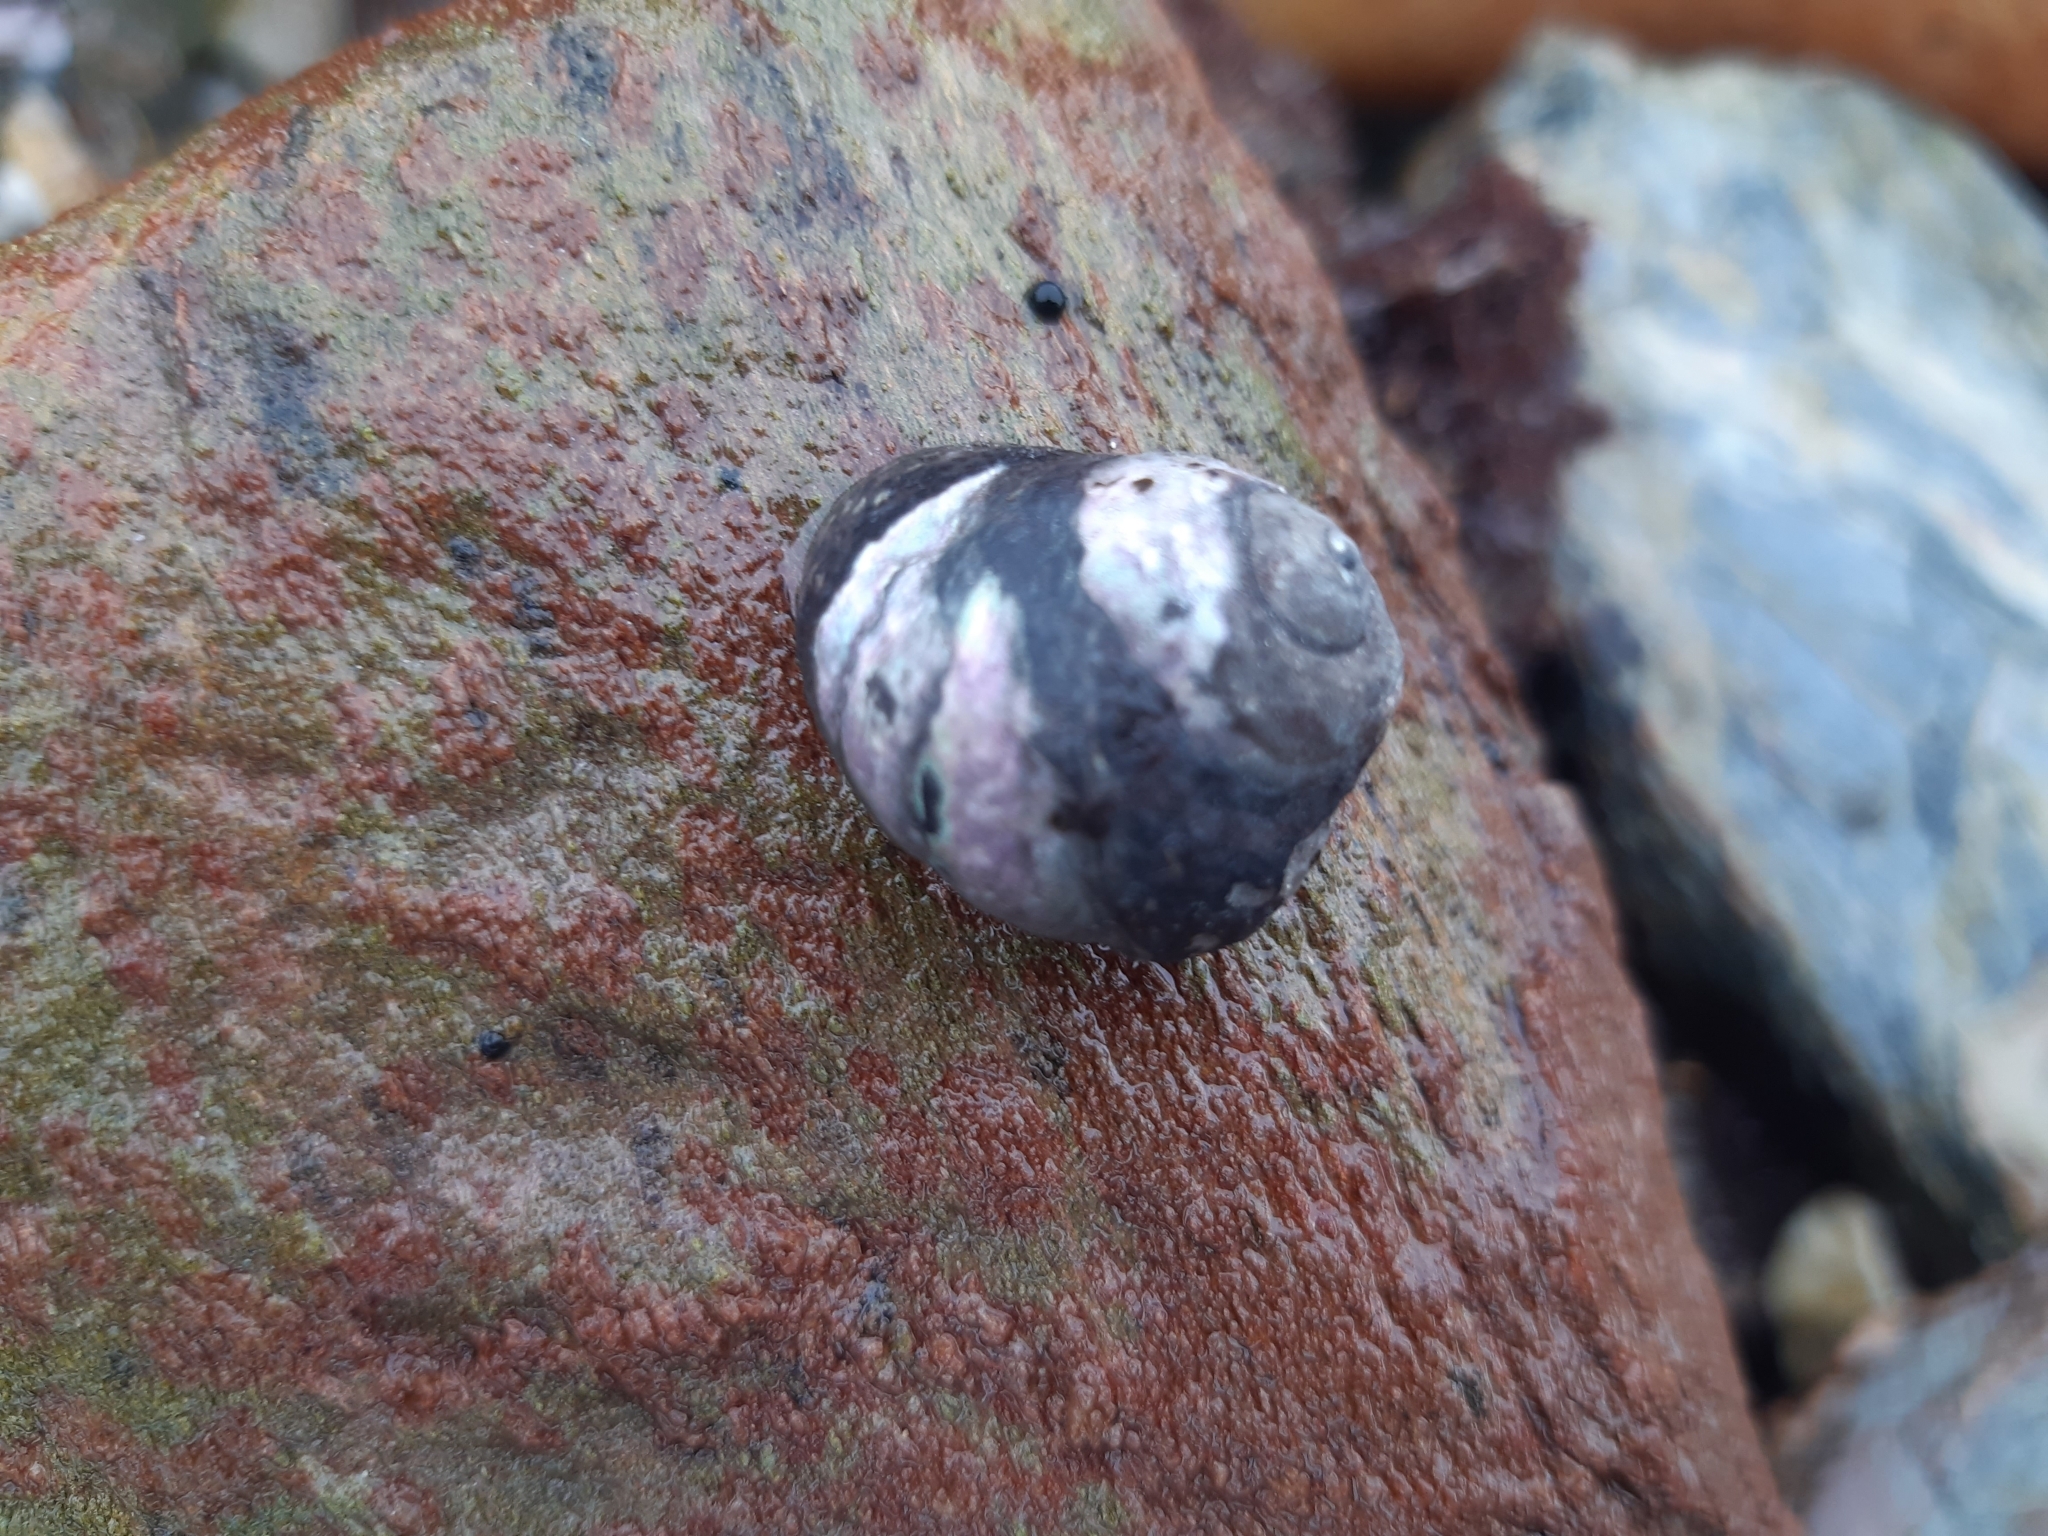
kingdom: Animalia
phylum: Mollusca
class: Gastropoda
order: Trochida
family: Trochidae
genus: Phorcus
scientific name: Phorcus lineatus
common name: Toothed top shell
